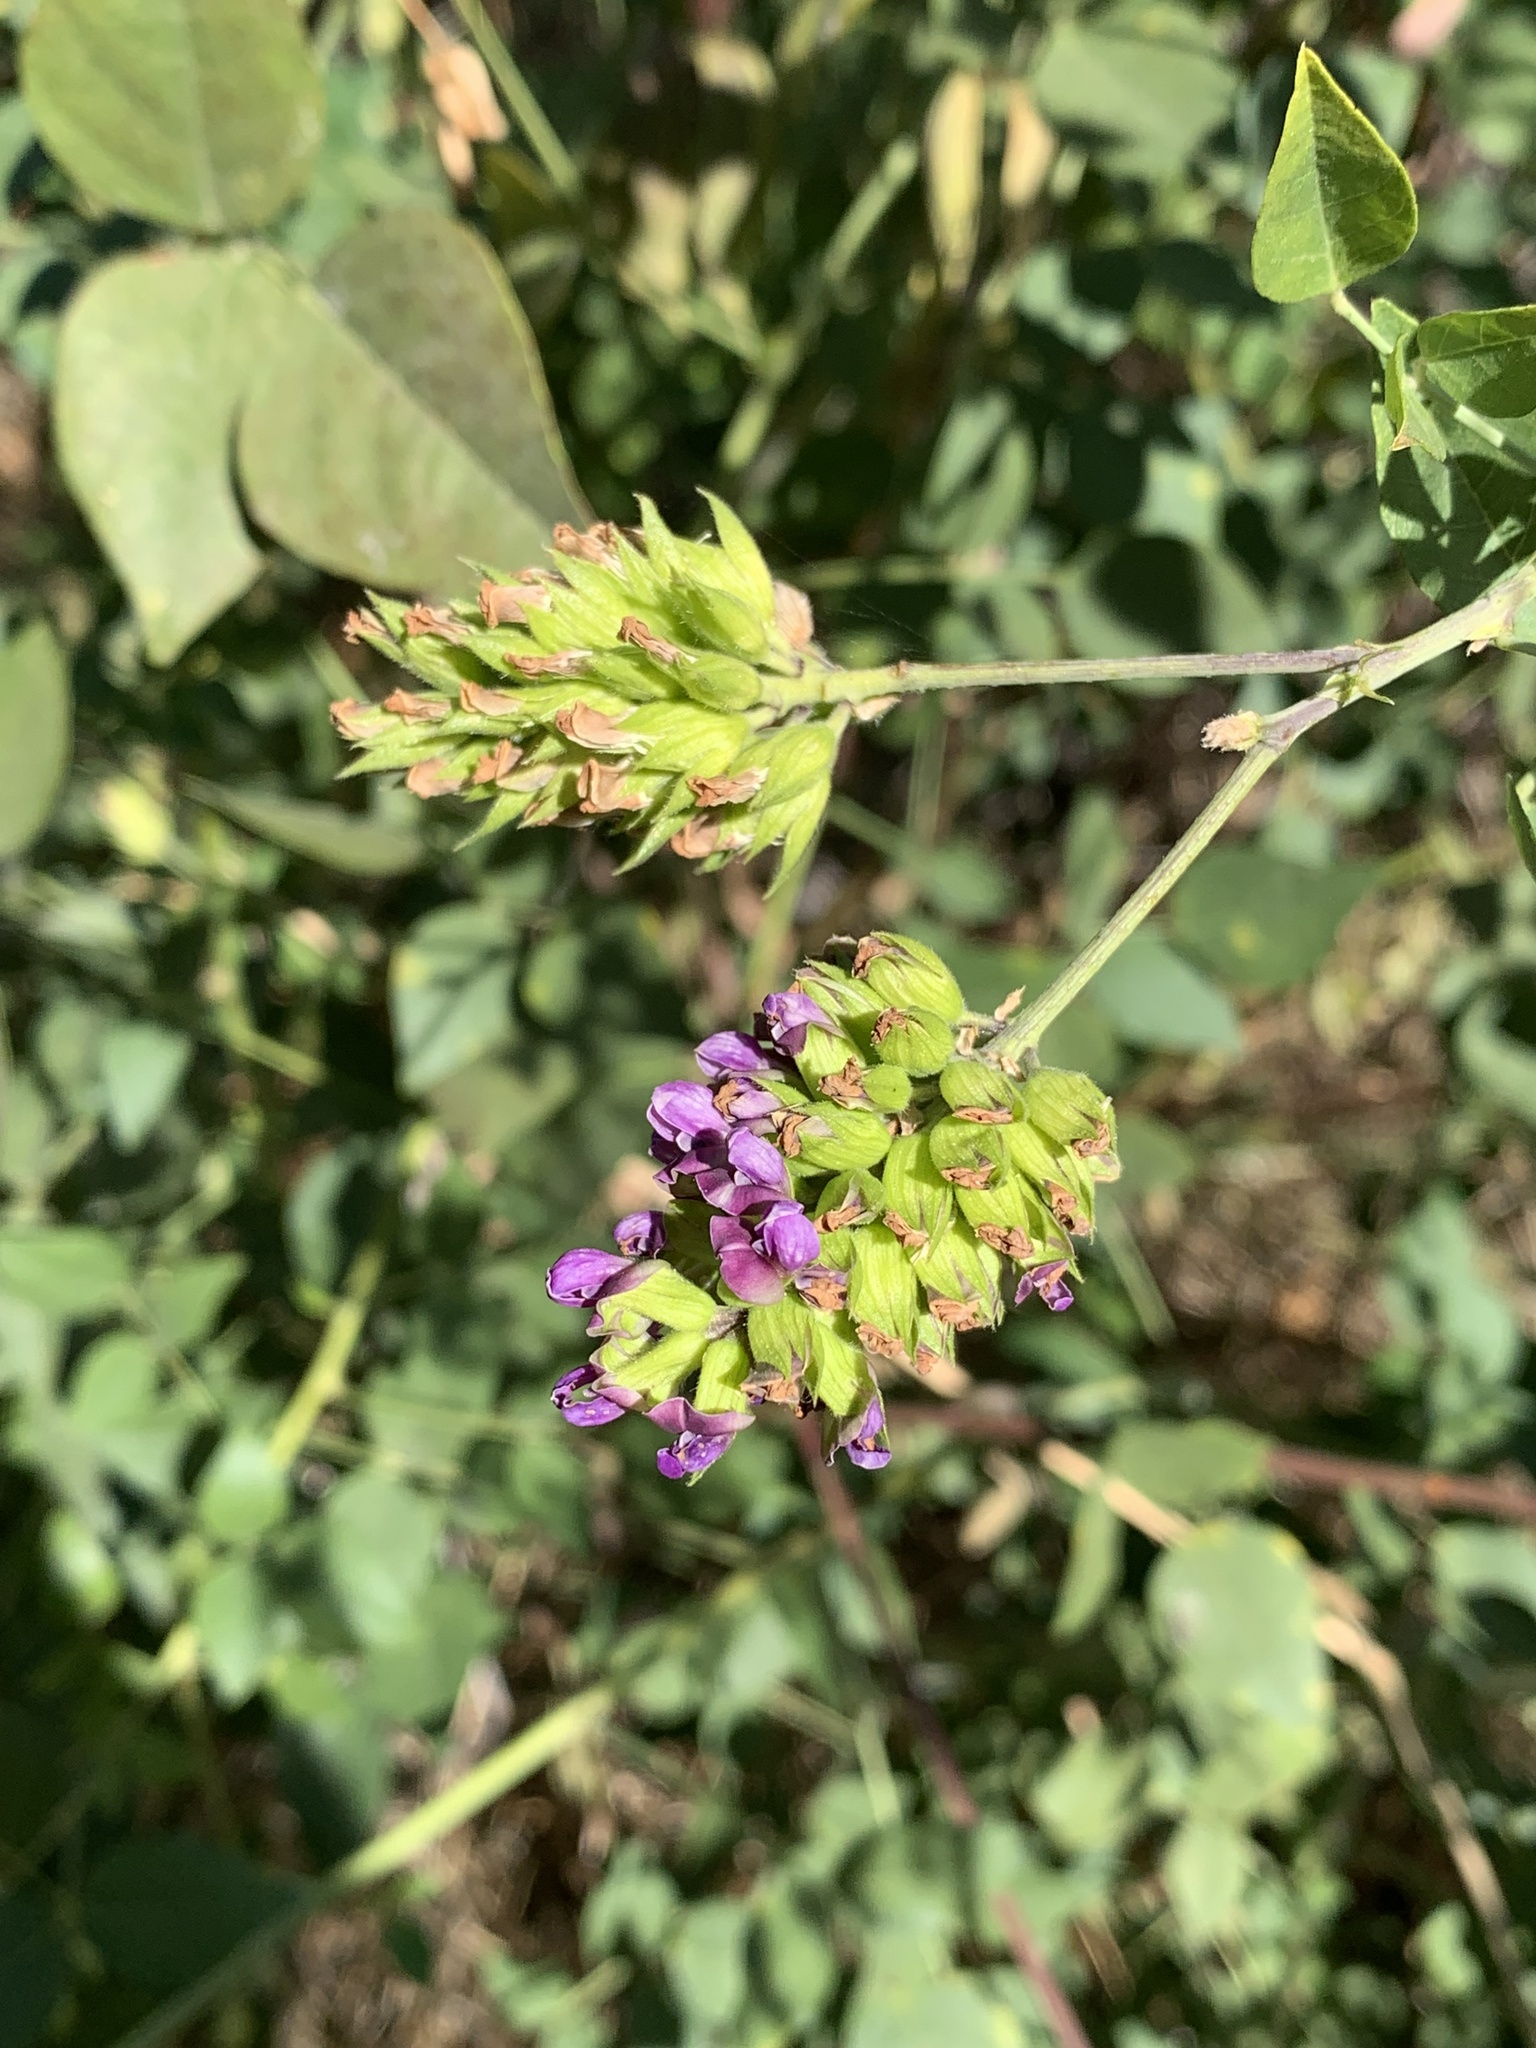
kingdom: Plantae
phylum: Tracheophyta
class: Magnoliopsida
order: Fabales
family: Fabaceae
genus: Hoita
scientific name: Hoita macrostachya
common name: Leatherroot
